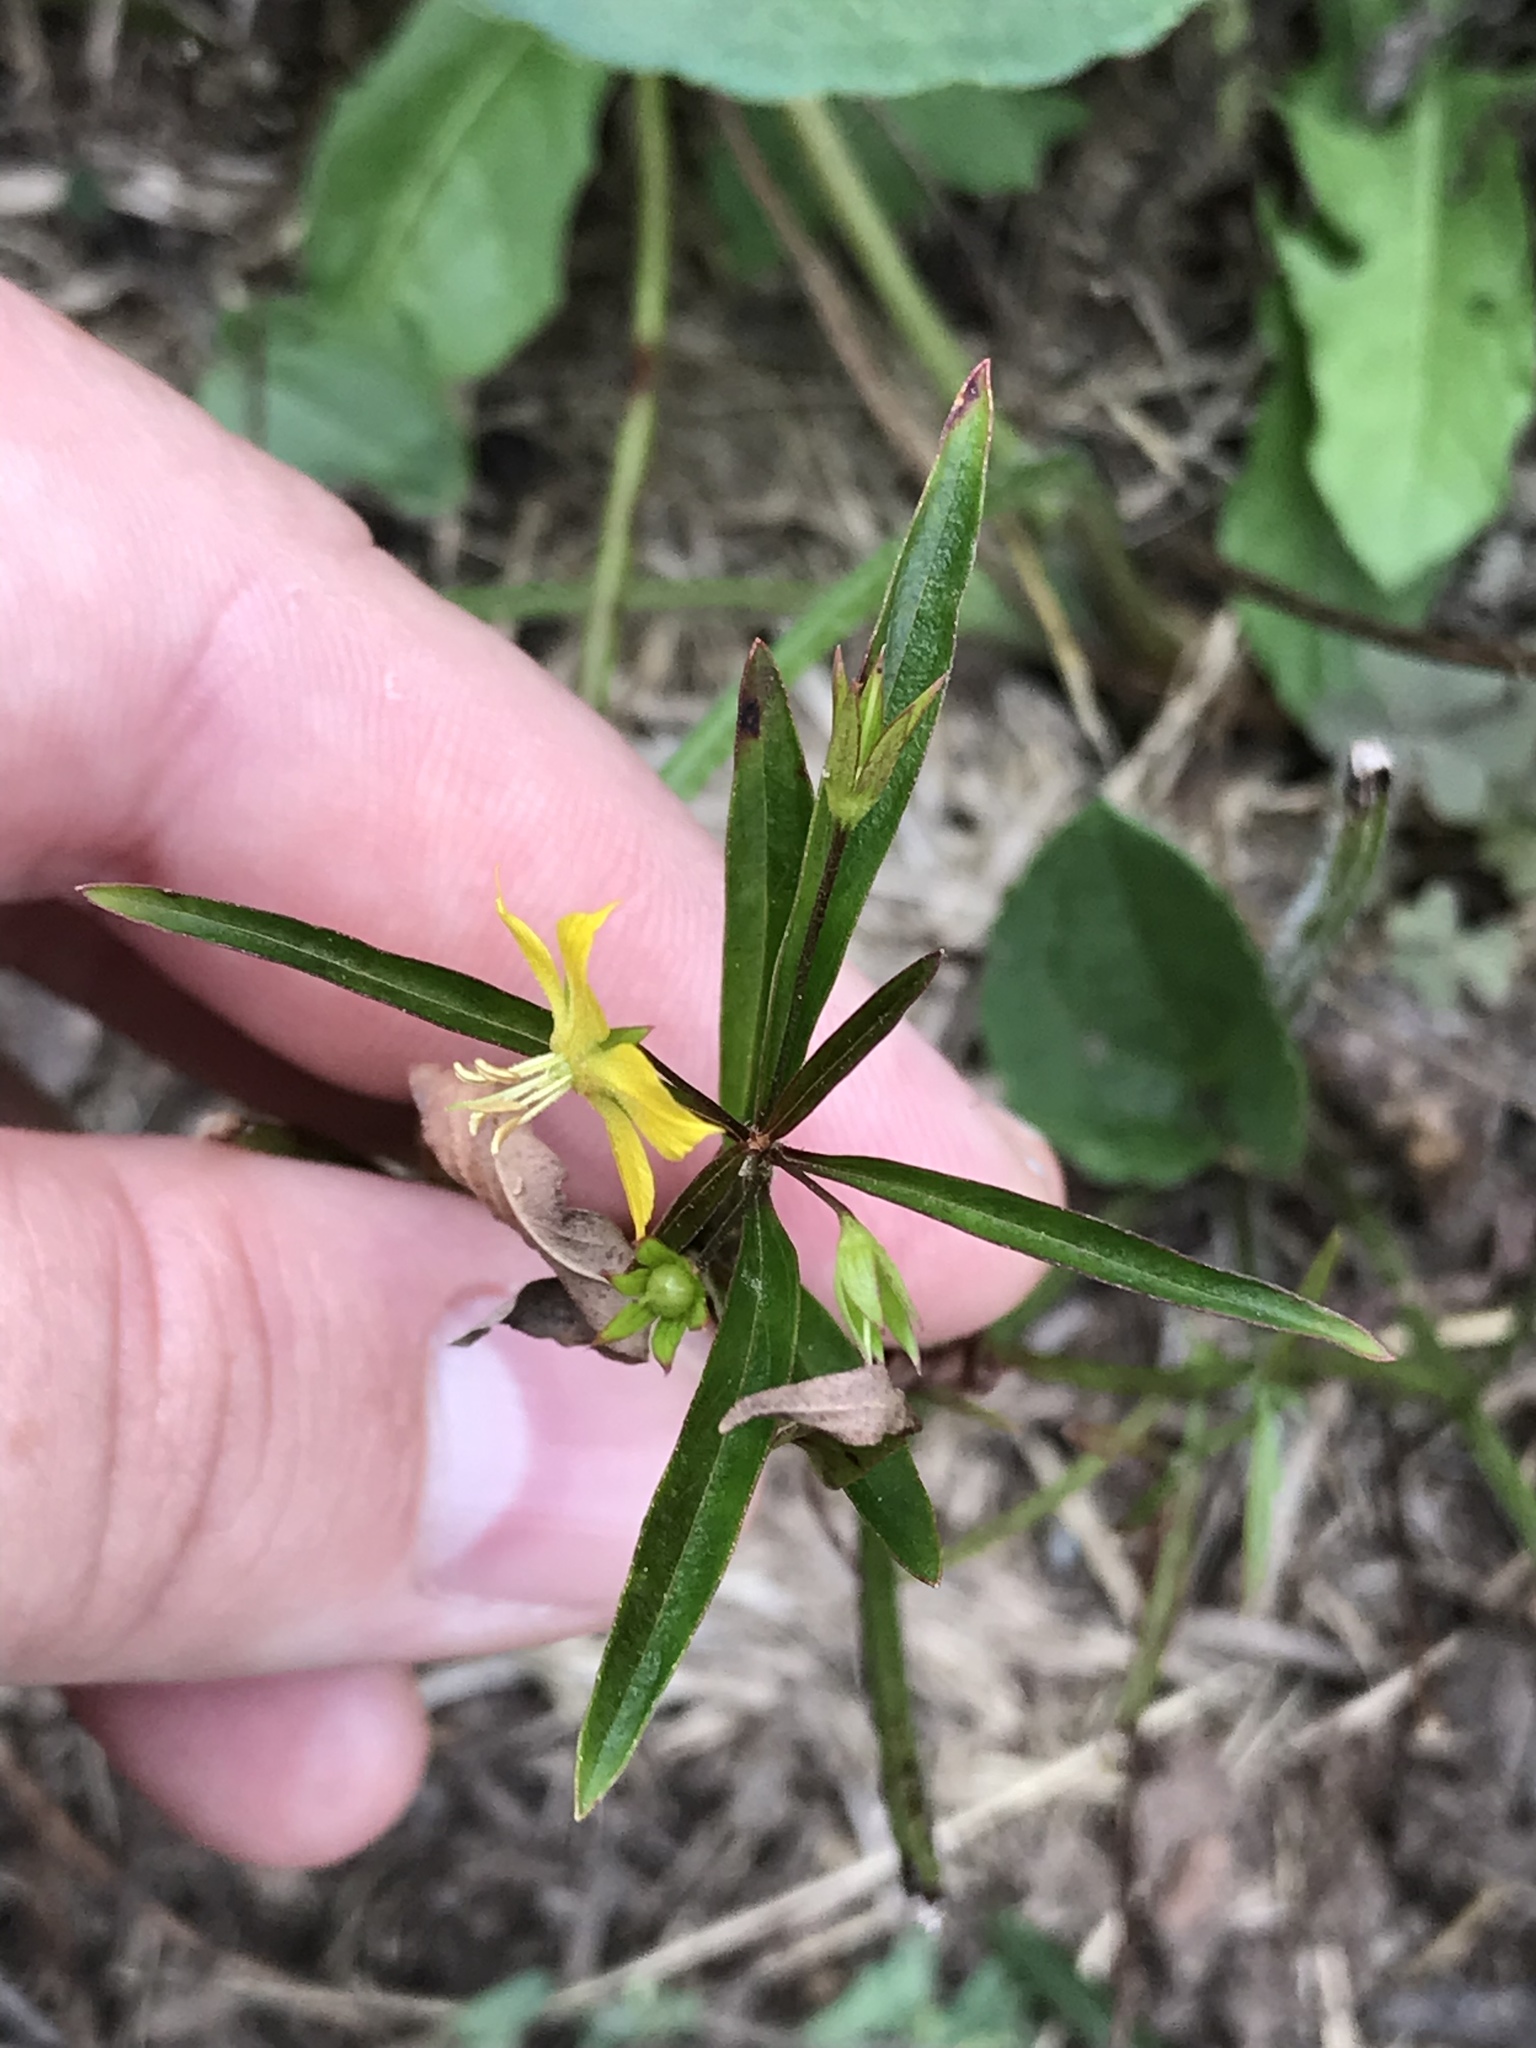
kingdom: Plantae
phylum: Tracheophyta
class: Magnoliopsida
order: Ericales
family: Primulaceae
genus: Lysimachia
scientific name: Lysimachia lanceolata
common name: Lance-leaved loosestrife
